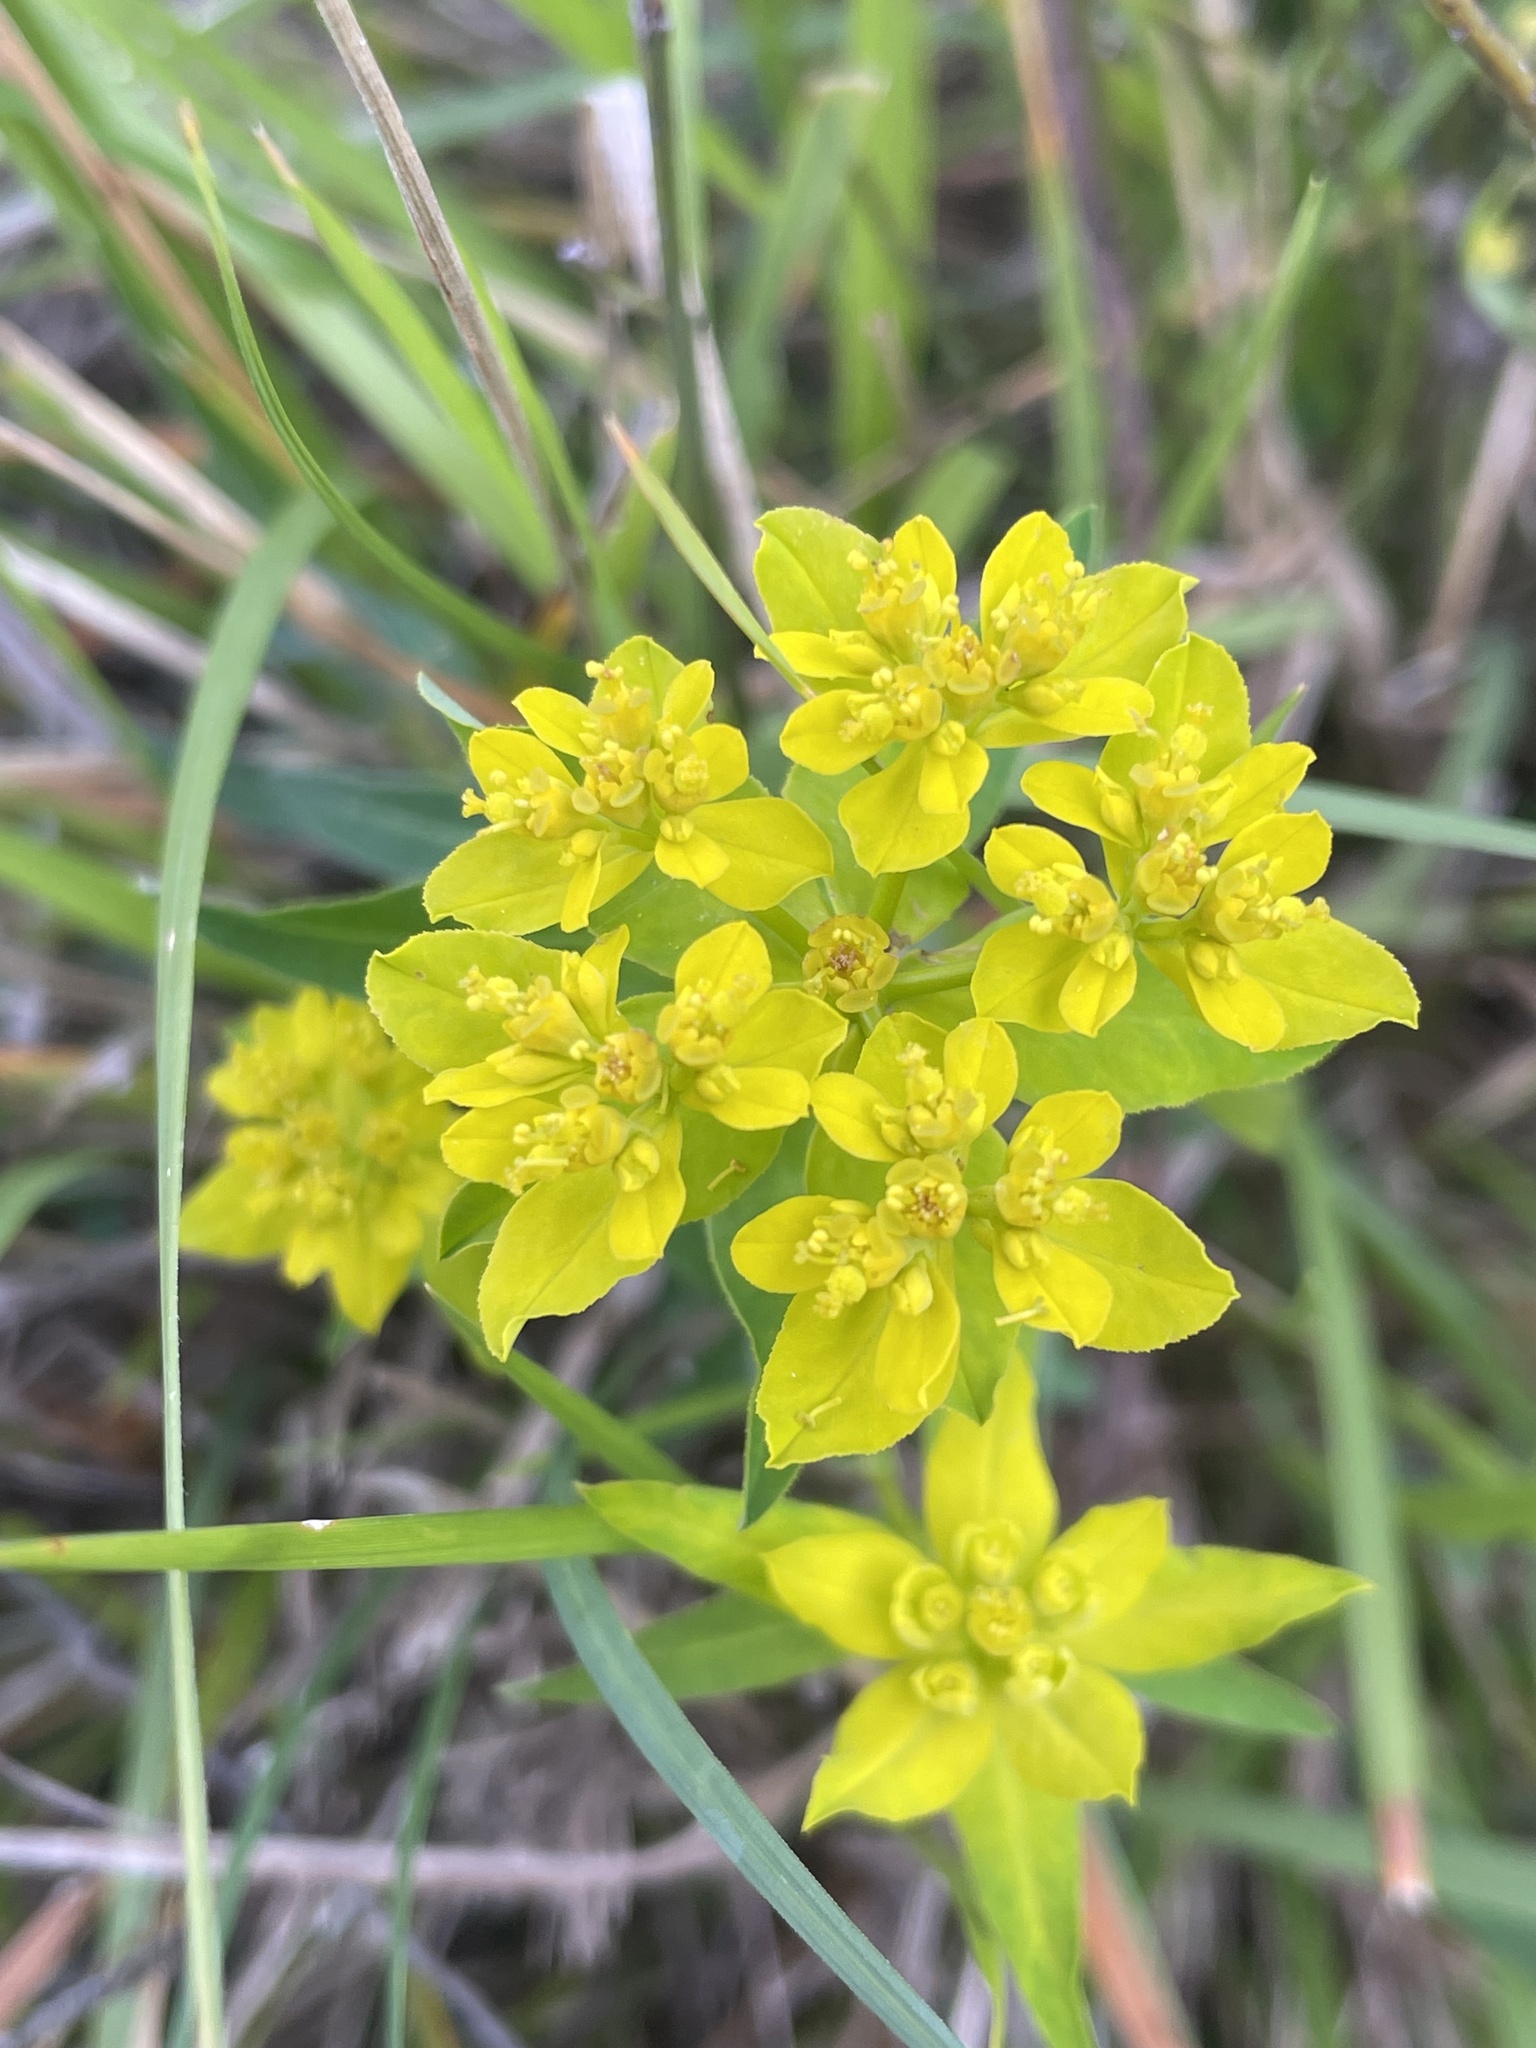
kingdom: Plantae
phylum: Tracheophyta
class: Magnoliopsida
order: Malpighiales
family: Euphorbiaceae
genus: Euphorbia
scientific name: Euphorbia verrucosa
